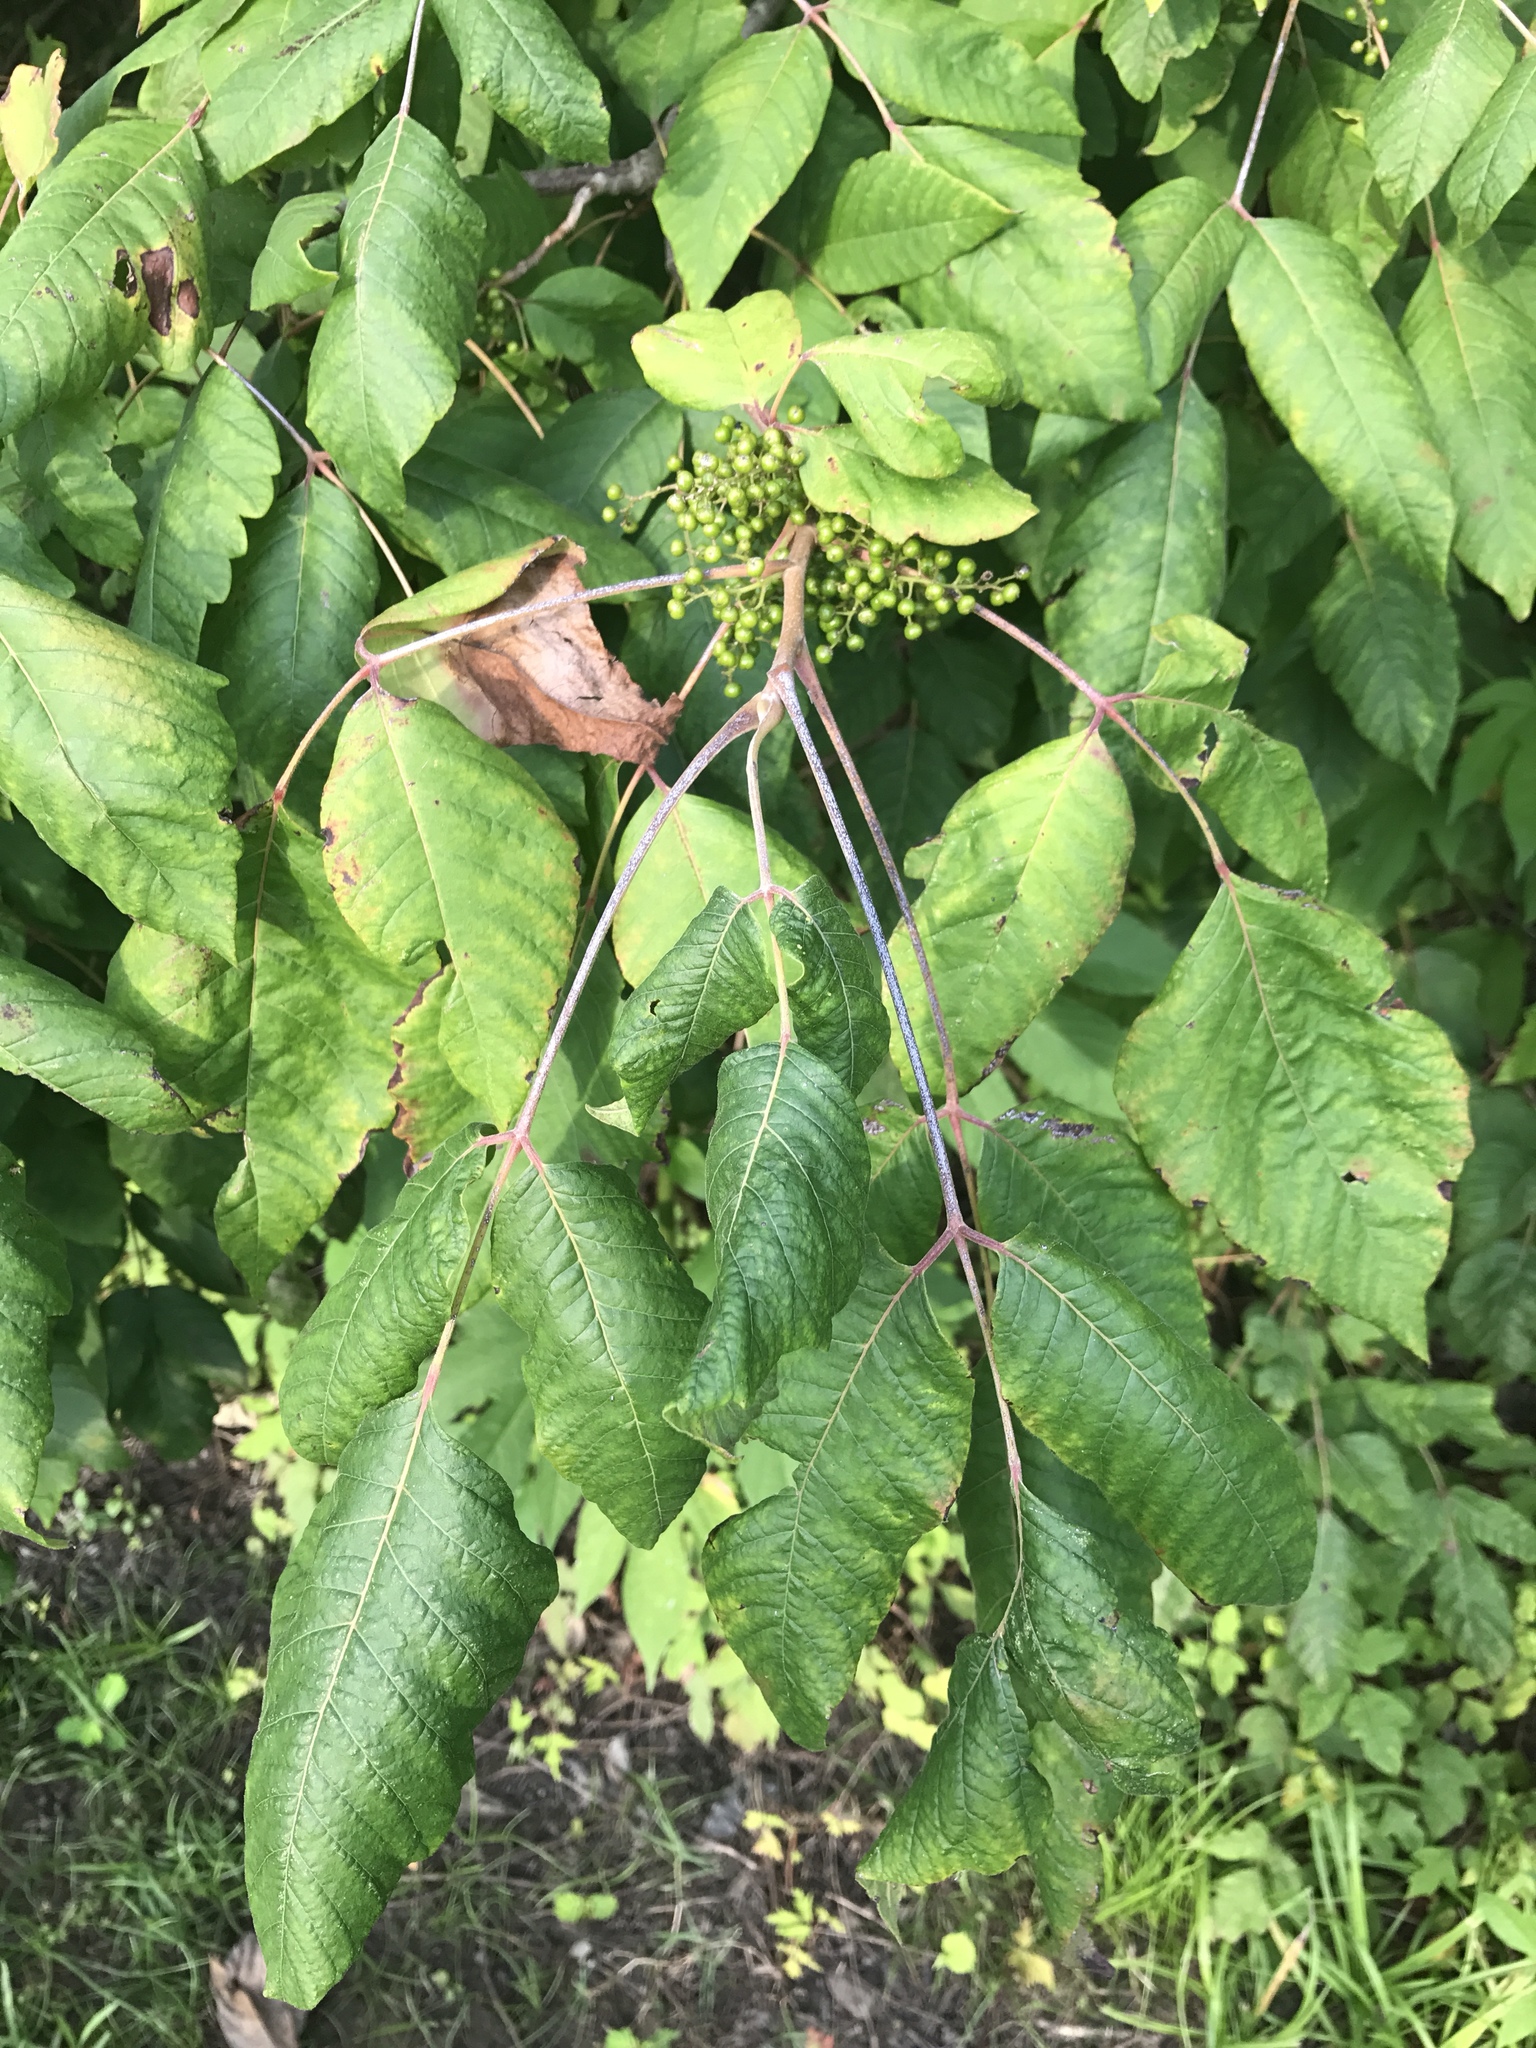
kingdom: Plantae
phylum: Tracheophyta
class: Magnoliopsida
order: Sapindales
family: Anacardiaceae
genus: Toxicodendron
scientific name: Toxicodendron radicans
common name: Poison ivy
